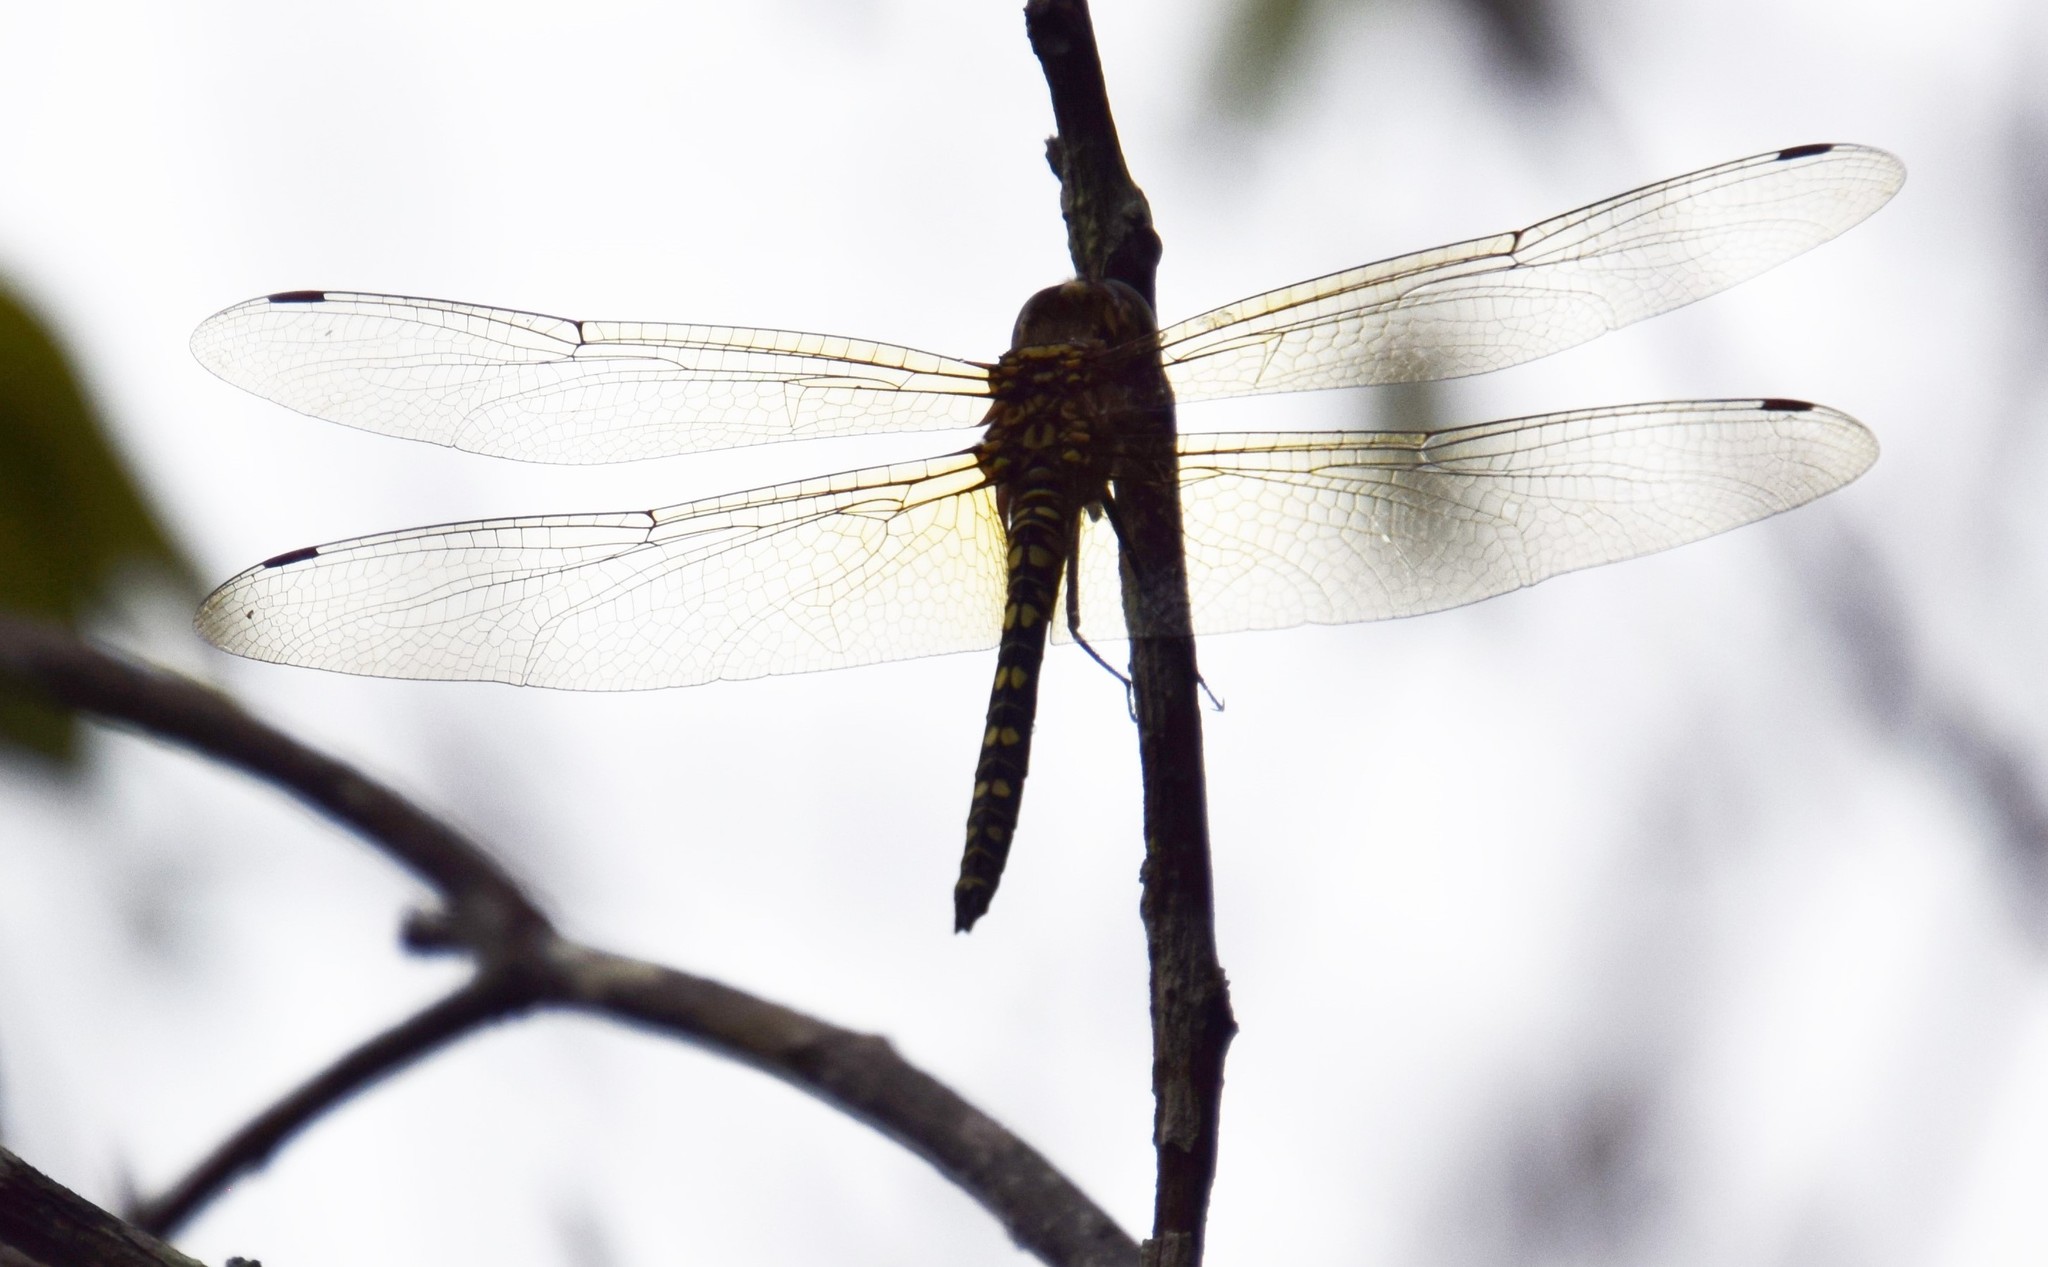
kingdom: Animalia
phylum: Arthropoda
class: Insecta
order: Odonata
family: Libellulidae
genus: Hydrobasileus
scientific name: Hydrobasileus brevistylus
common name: Water prince
